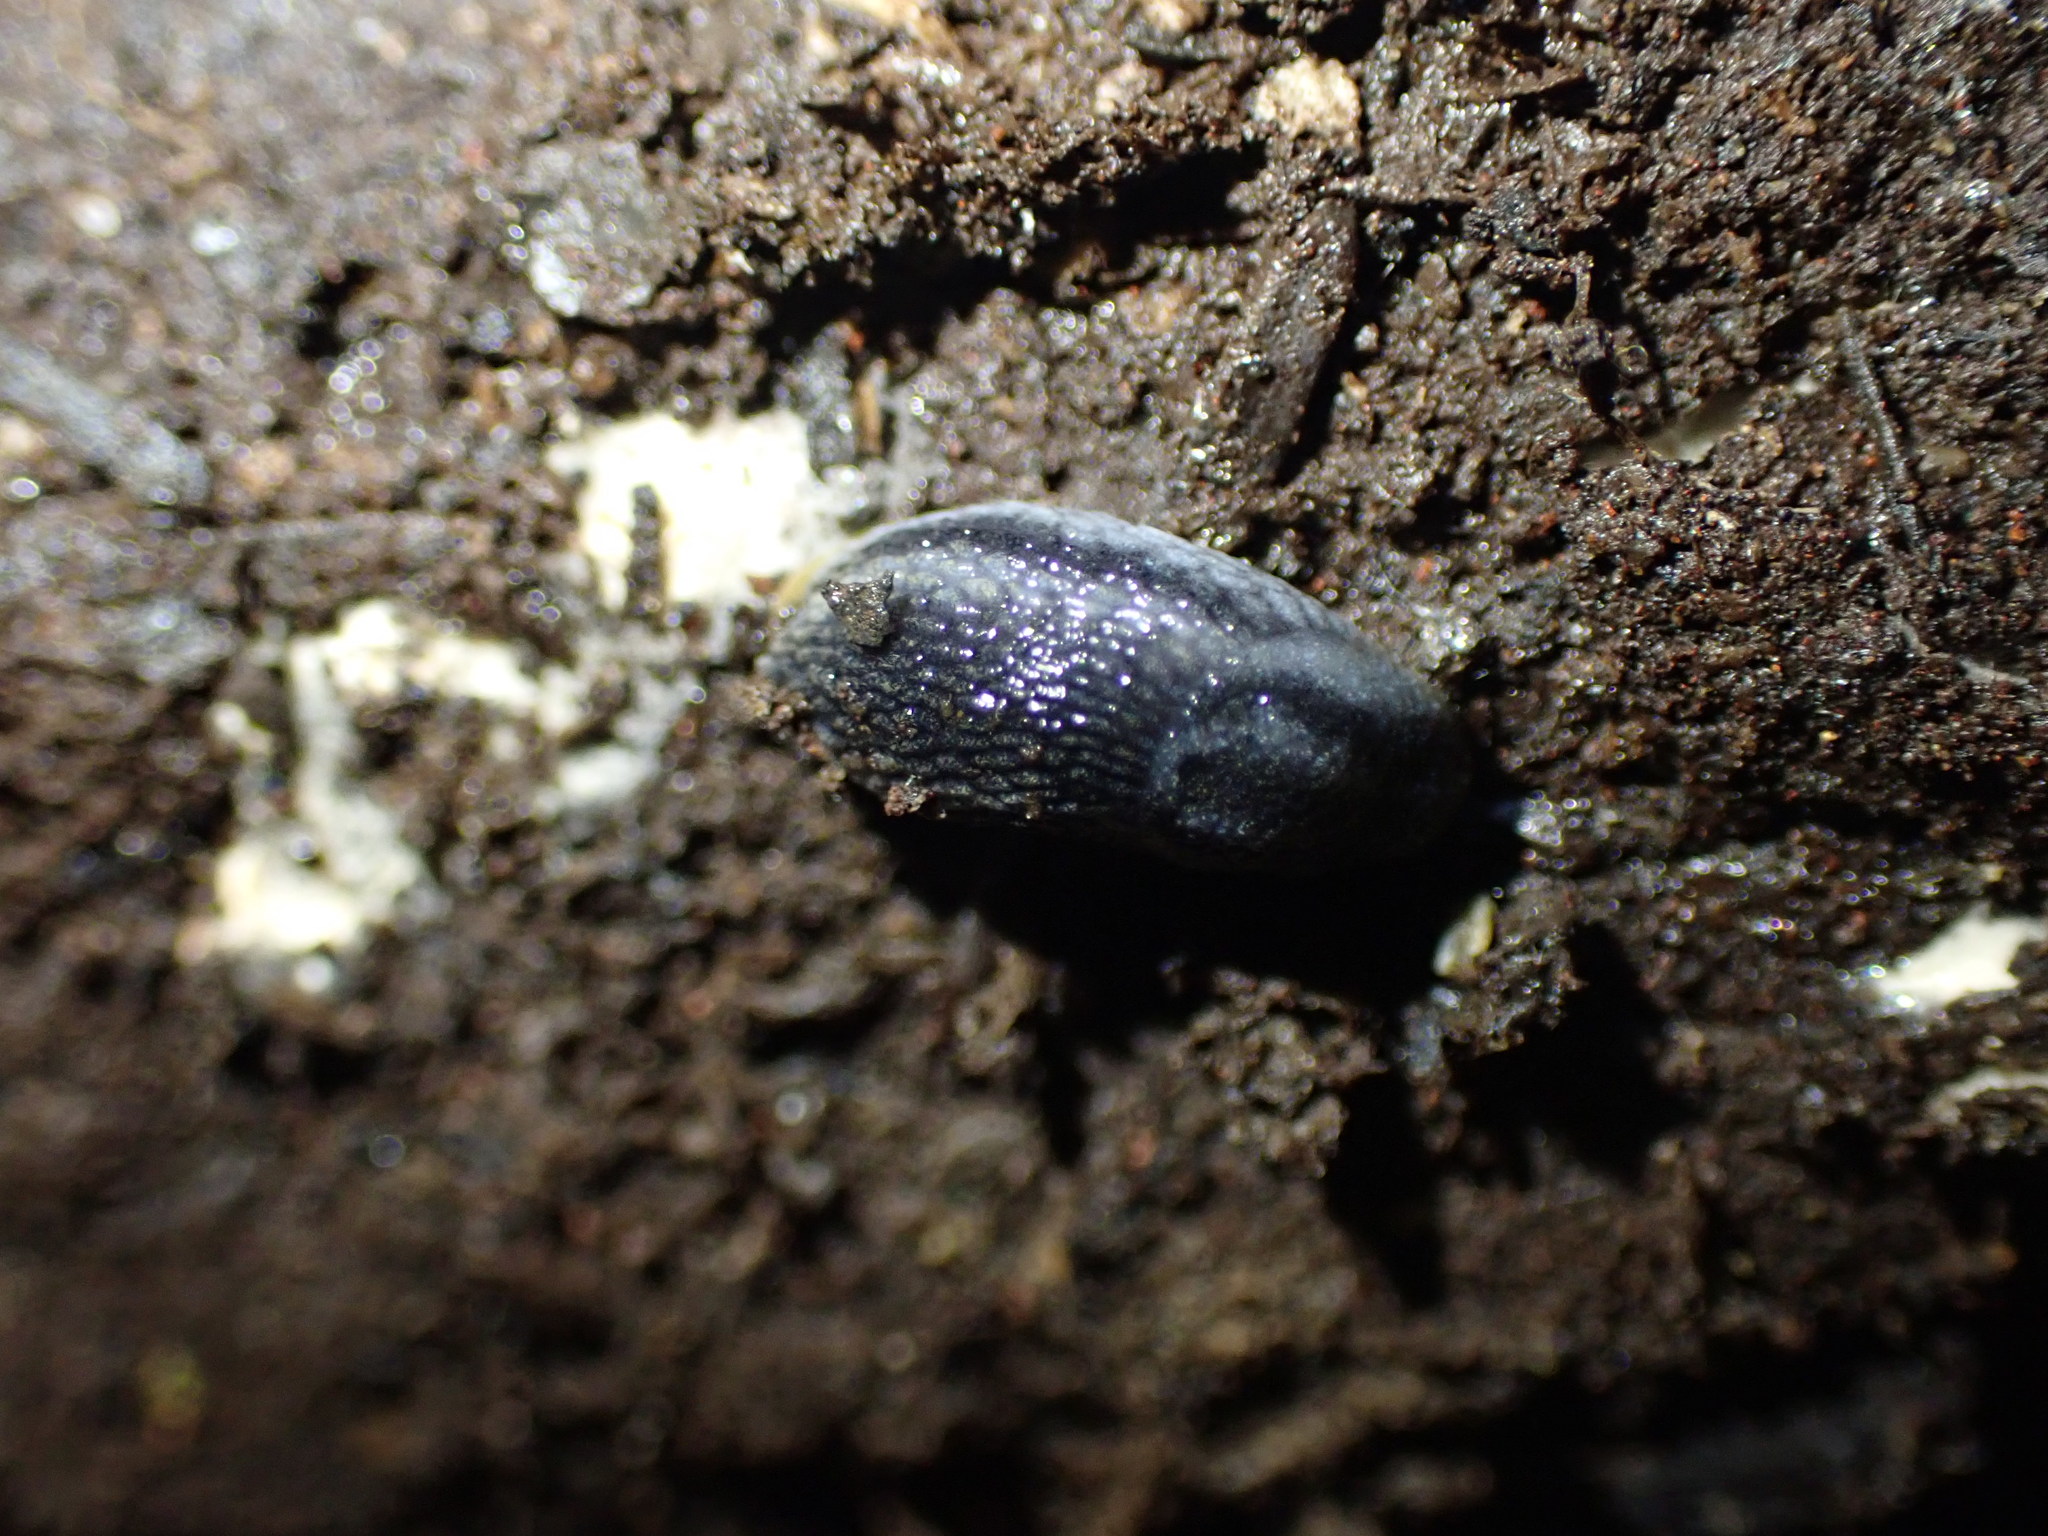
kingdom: Animalia
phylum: Mollusca
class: Gastropoda
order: Stylommatophora
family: Arionidae
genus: Kobeltia
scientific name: Kobeltia
